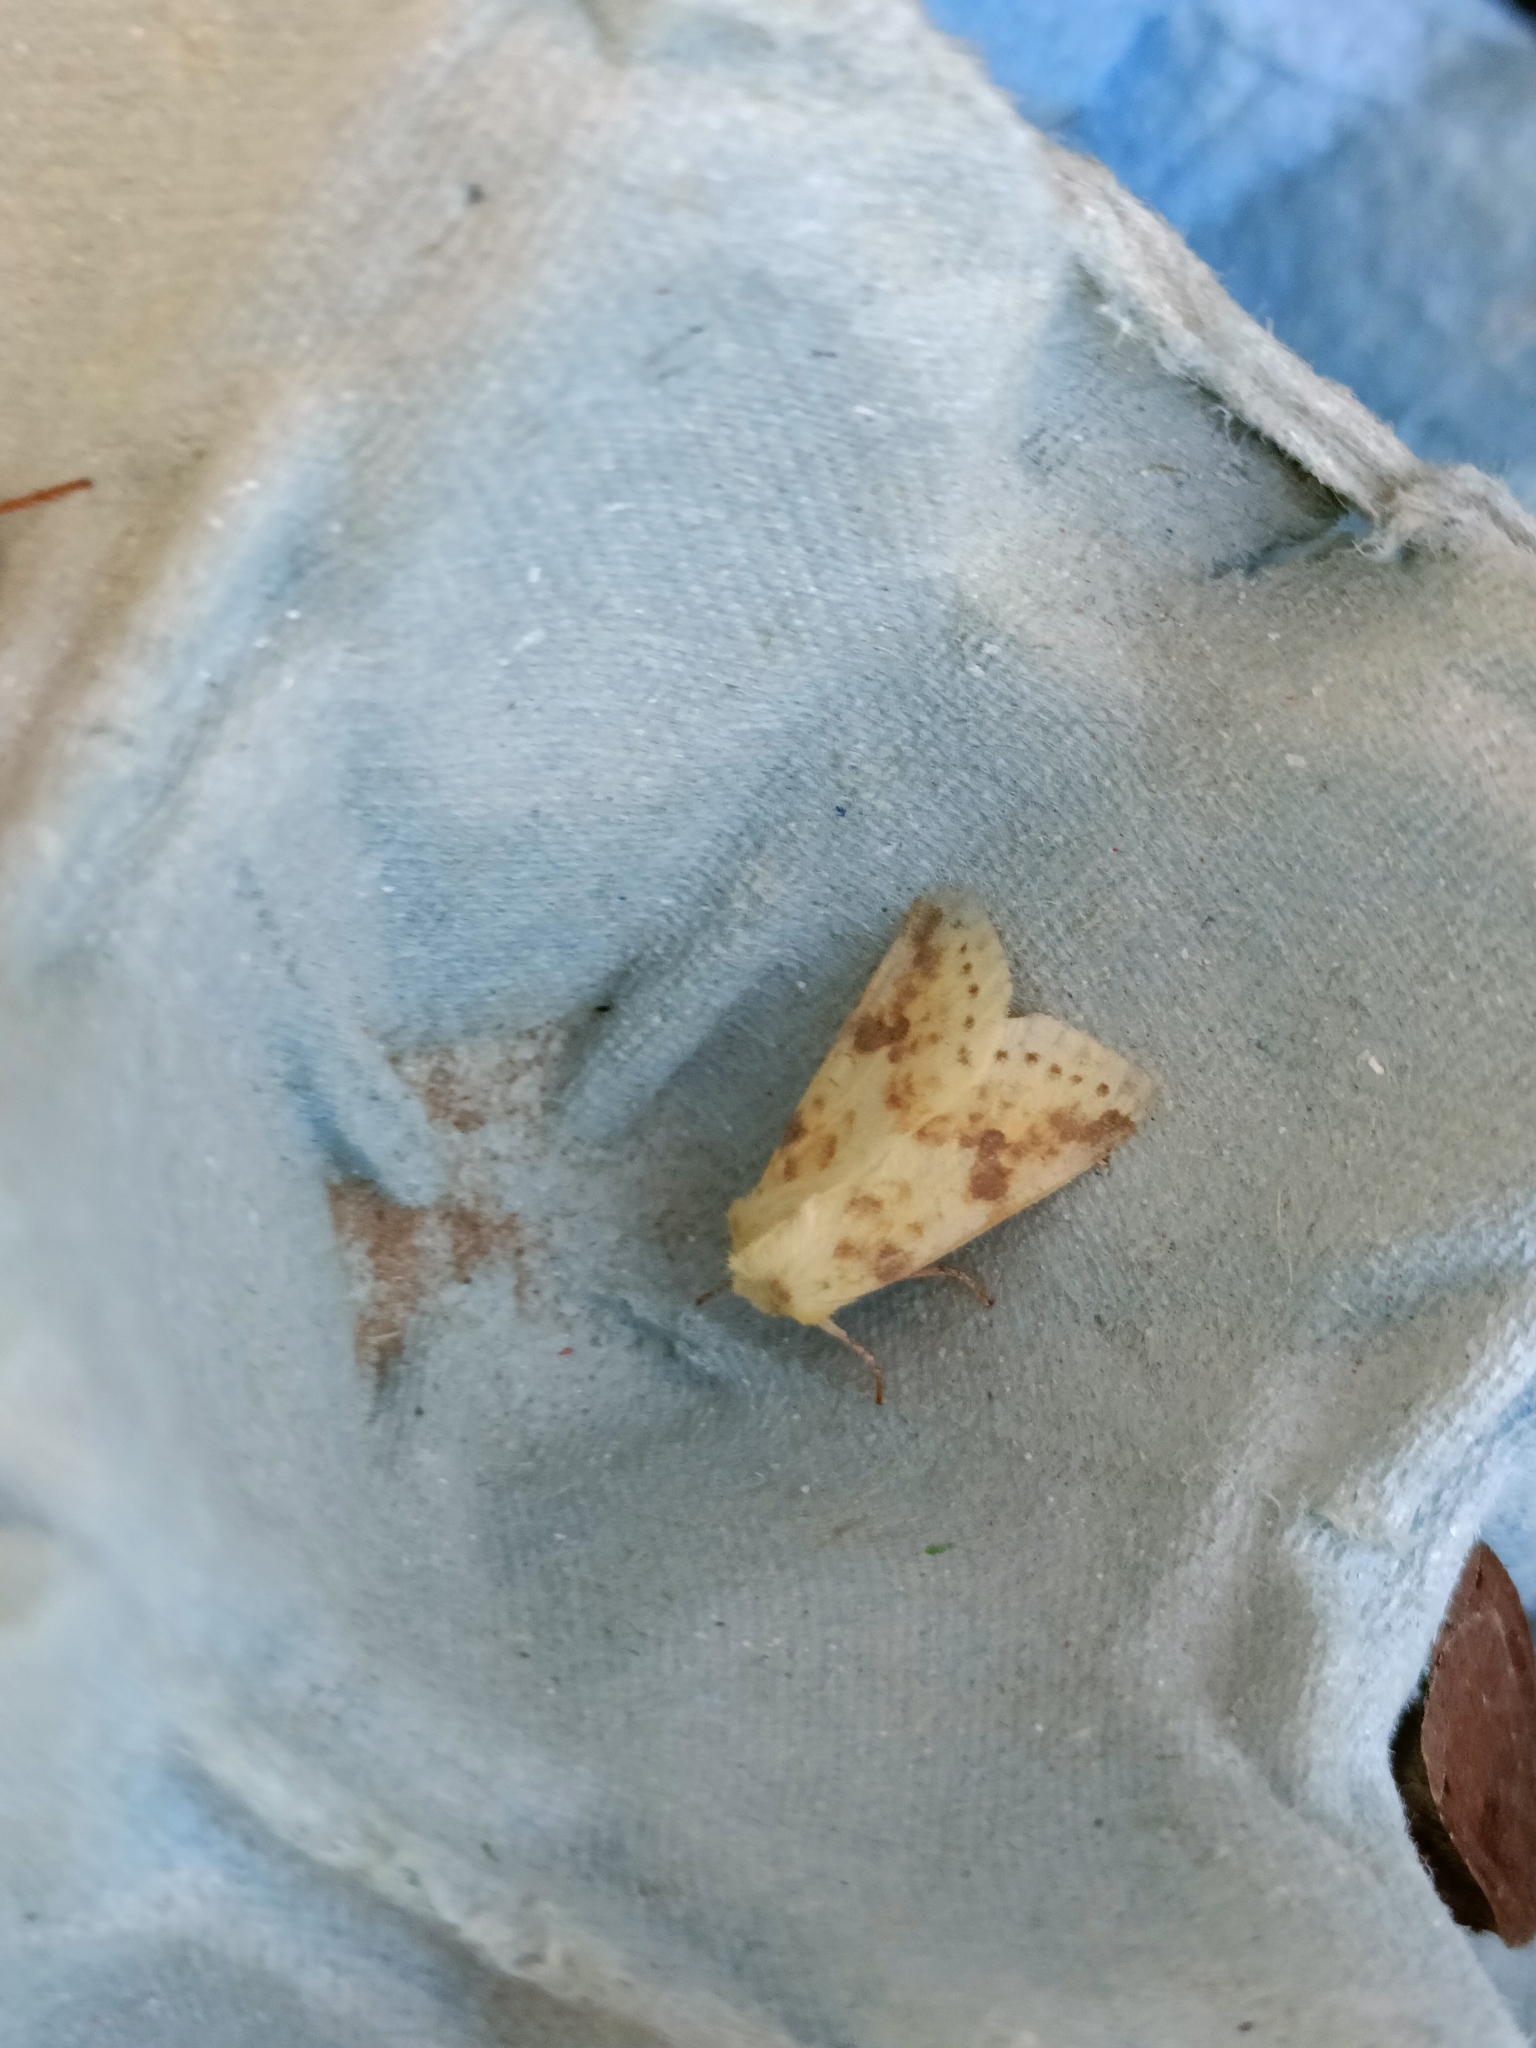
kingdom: Animalia
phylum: Arthropoda
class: Insecta
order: Lepidoptera
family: Noctuidae
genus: Xanthia
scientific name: Xanthia icteritia
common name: The sallow
